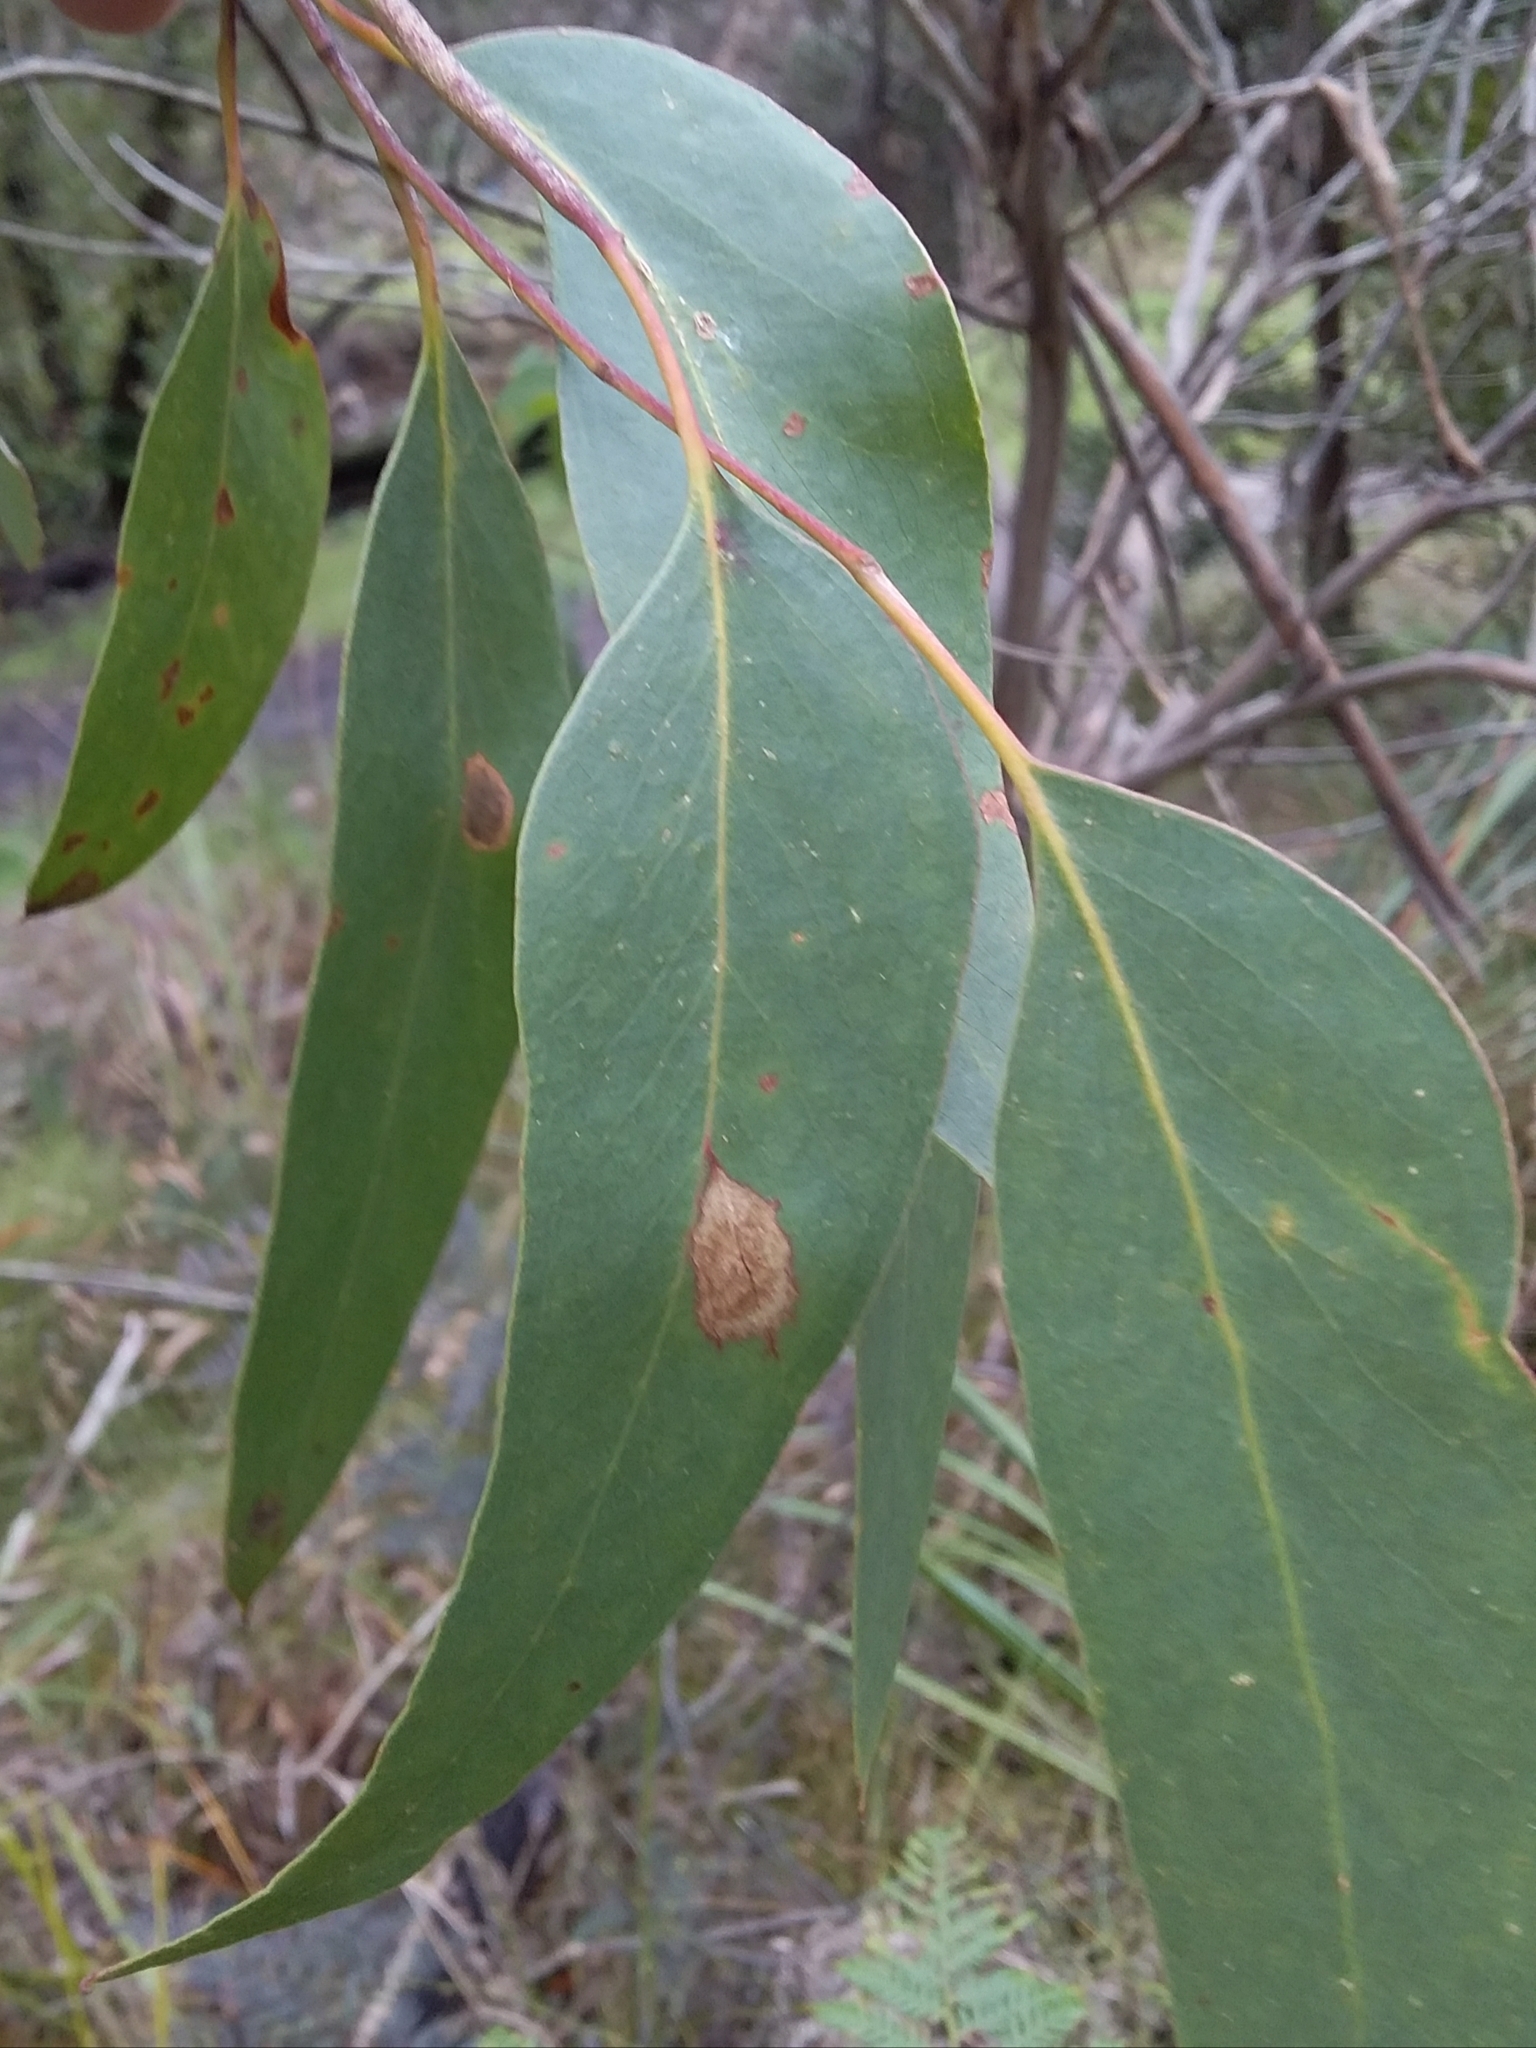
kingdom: Plantae
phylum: Tracheophyta
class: Magnoliopsida
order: Myrtales
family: Myrtaceae
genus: Eucalyptus
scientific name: Eucalyptus obliqua
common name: Messmate stringybark
